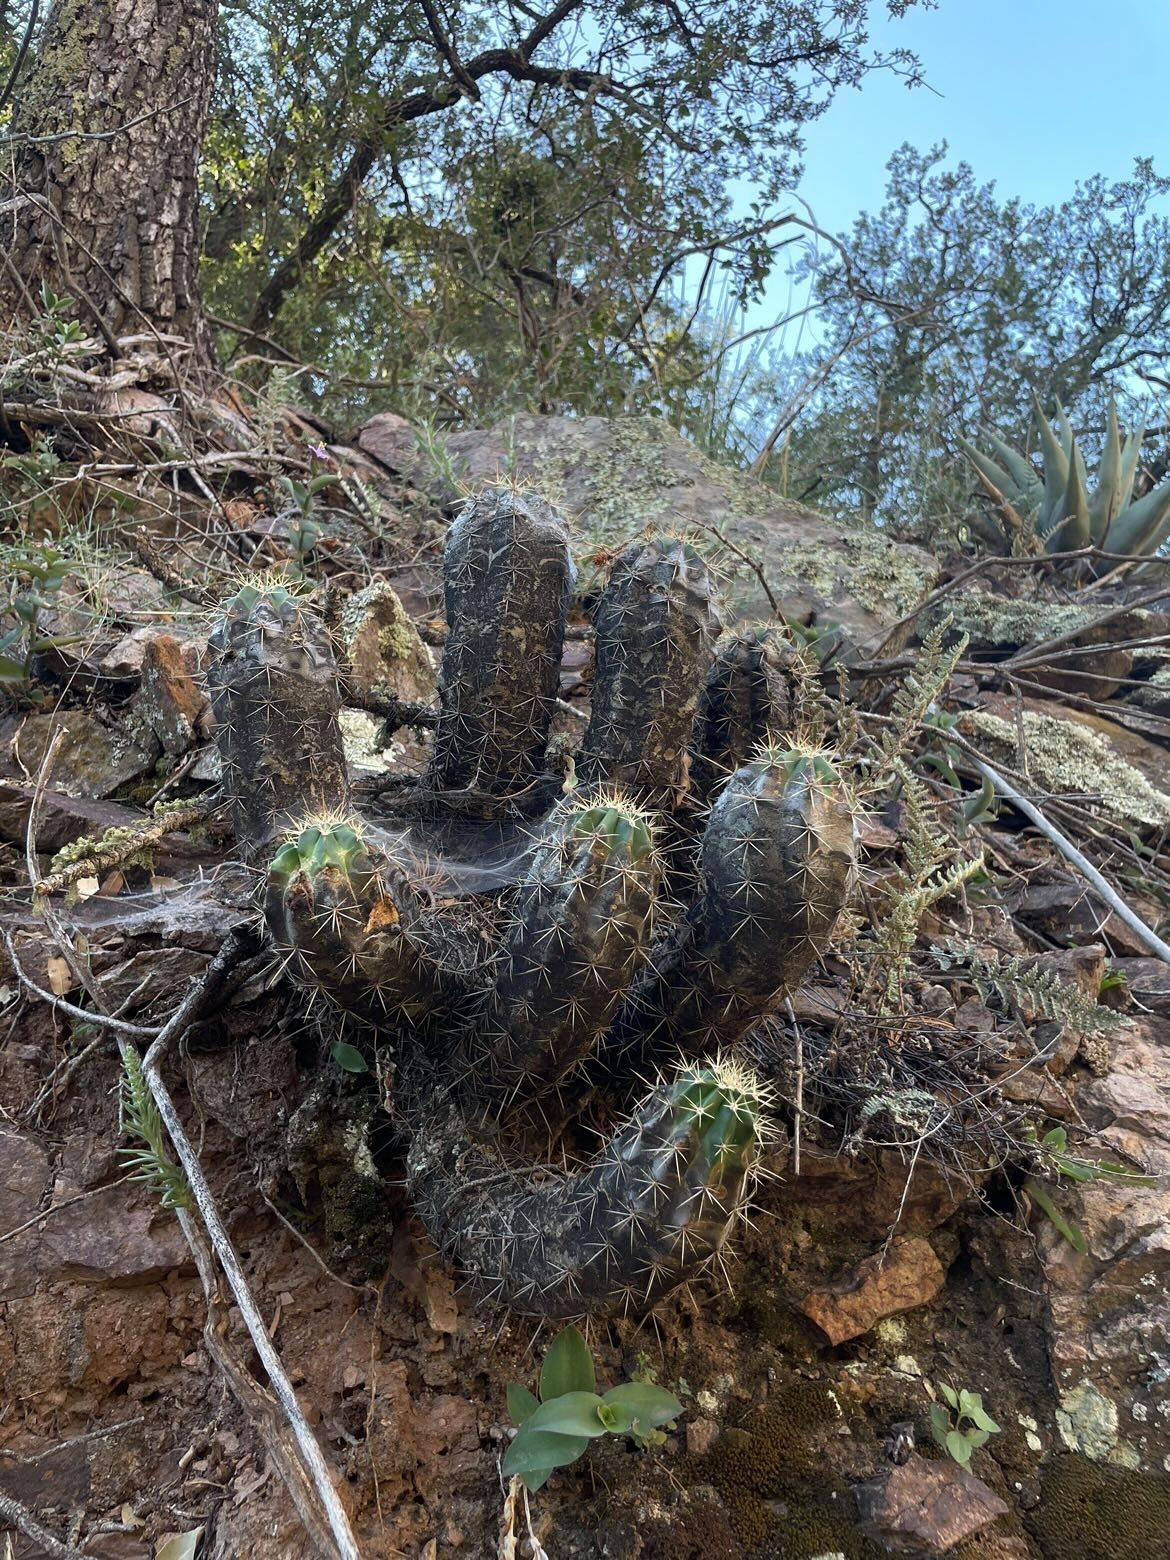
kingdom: Plantae
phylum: Tracheophyta
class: Magnoliopsida
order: Caryophyllales
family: Cactaceae
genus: Echinocereus
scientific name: Echinocereus coccineus
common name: Scarlet hedgehog cactus
